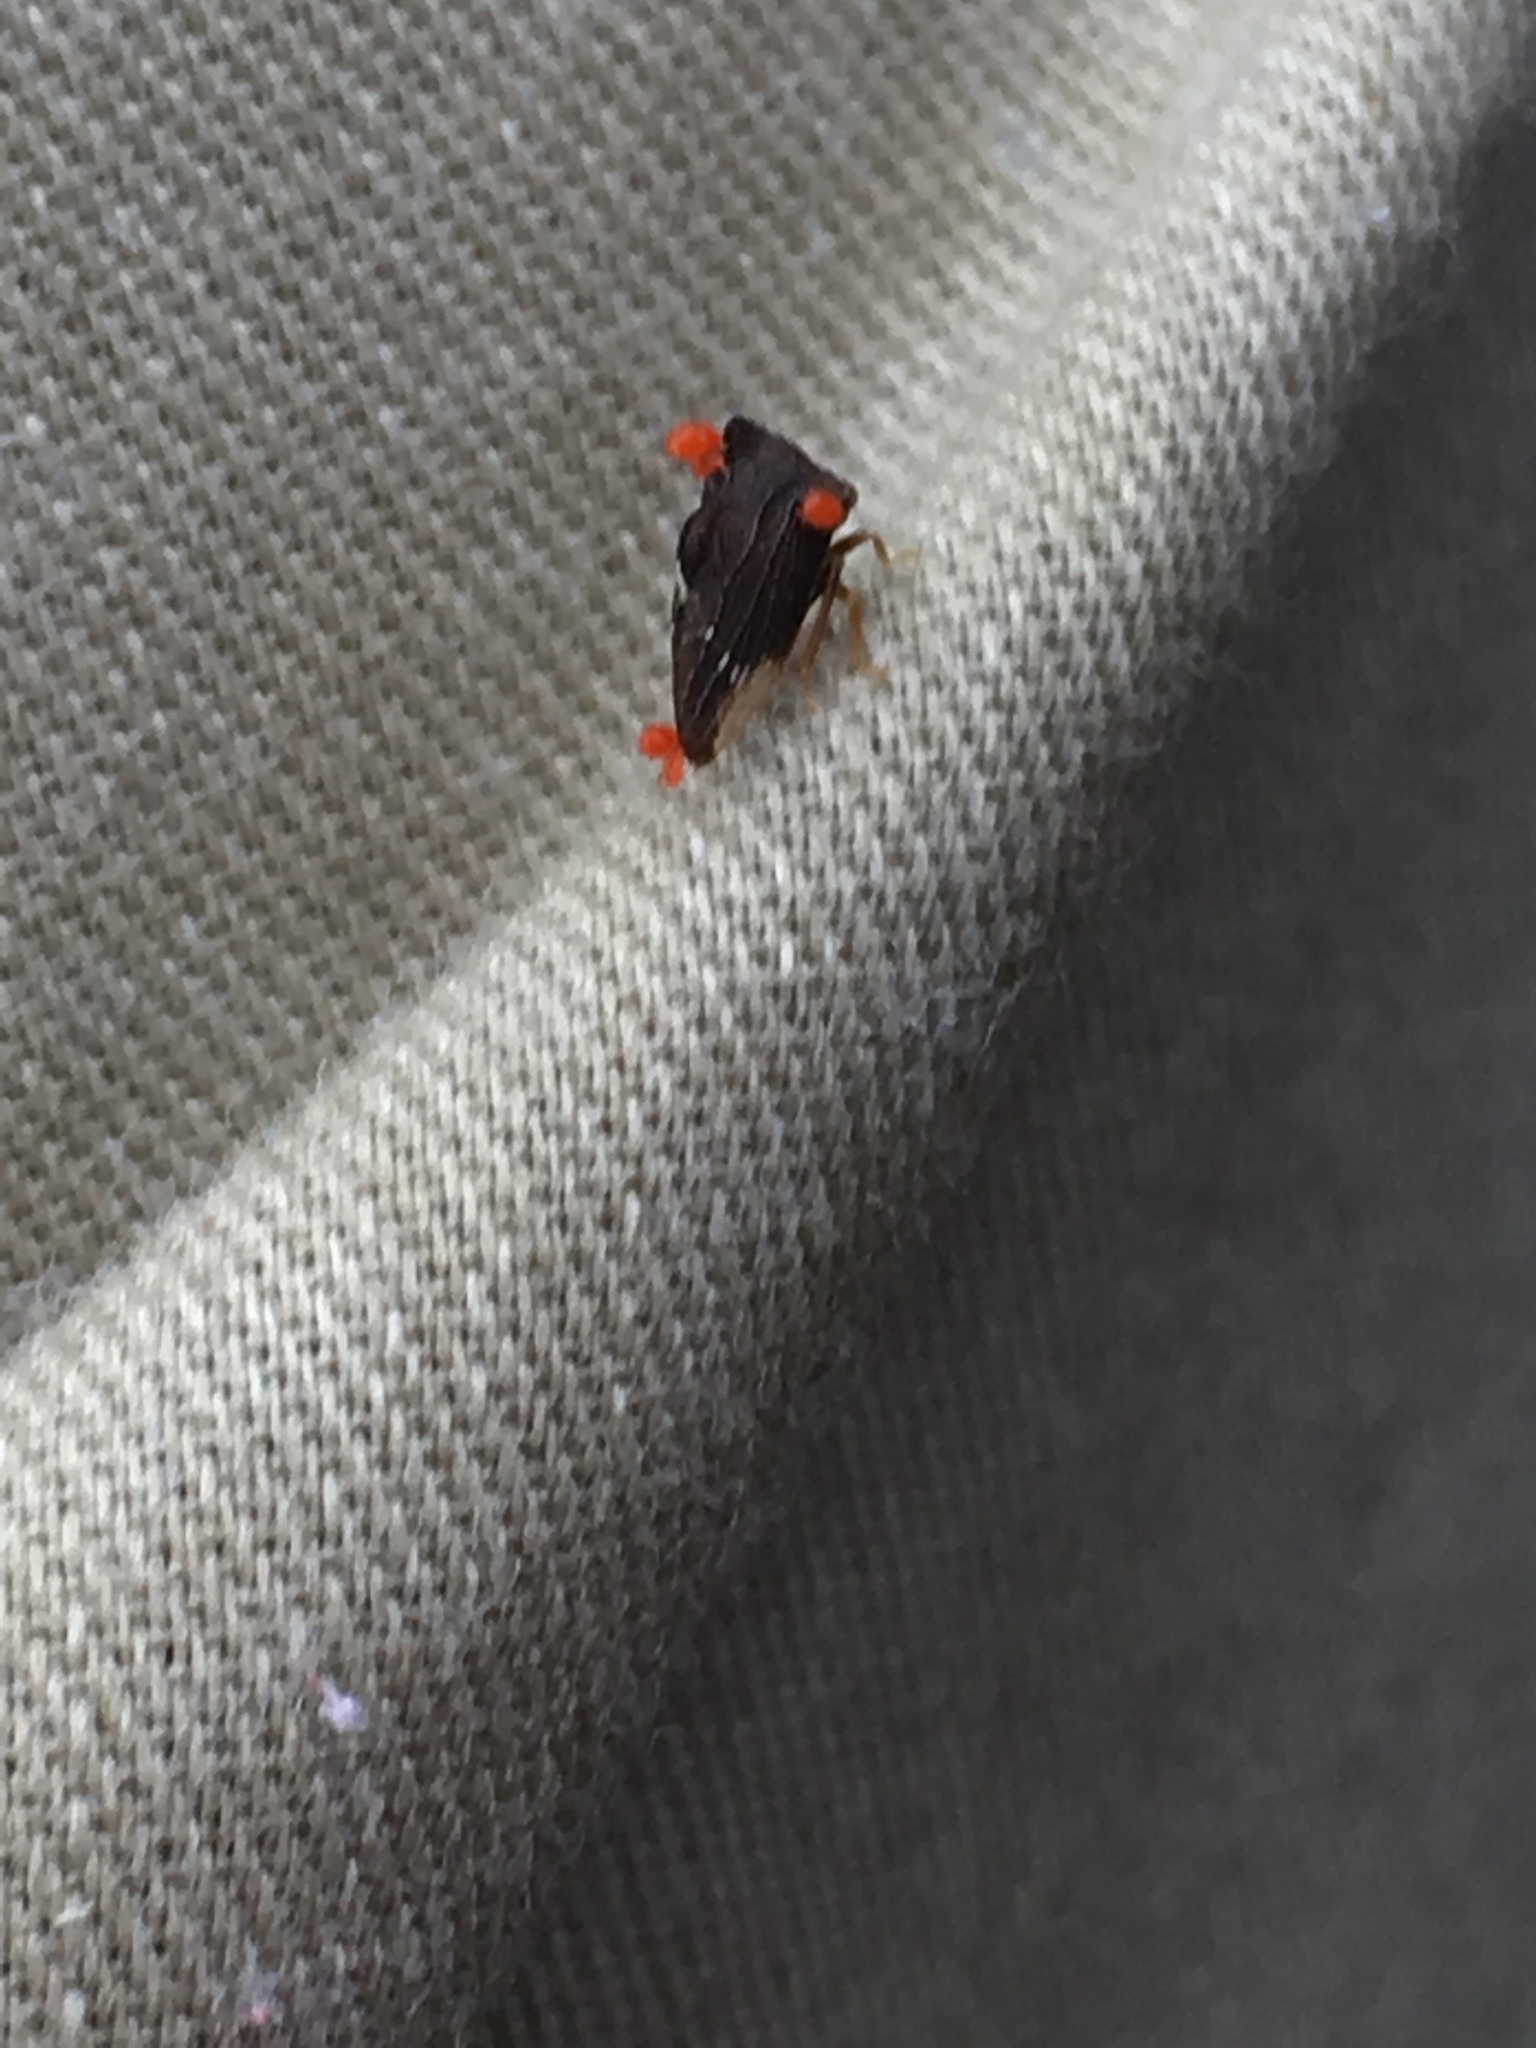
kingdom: Animalia
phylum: Arthropoda
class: Insecta
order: Hemiptera
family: Membracidae
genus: Entylia
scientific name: Entylia carinata
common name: Keeled treehopper
